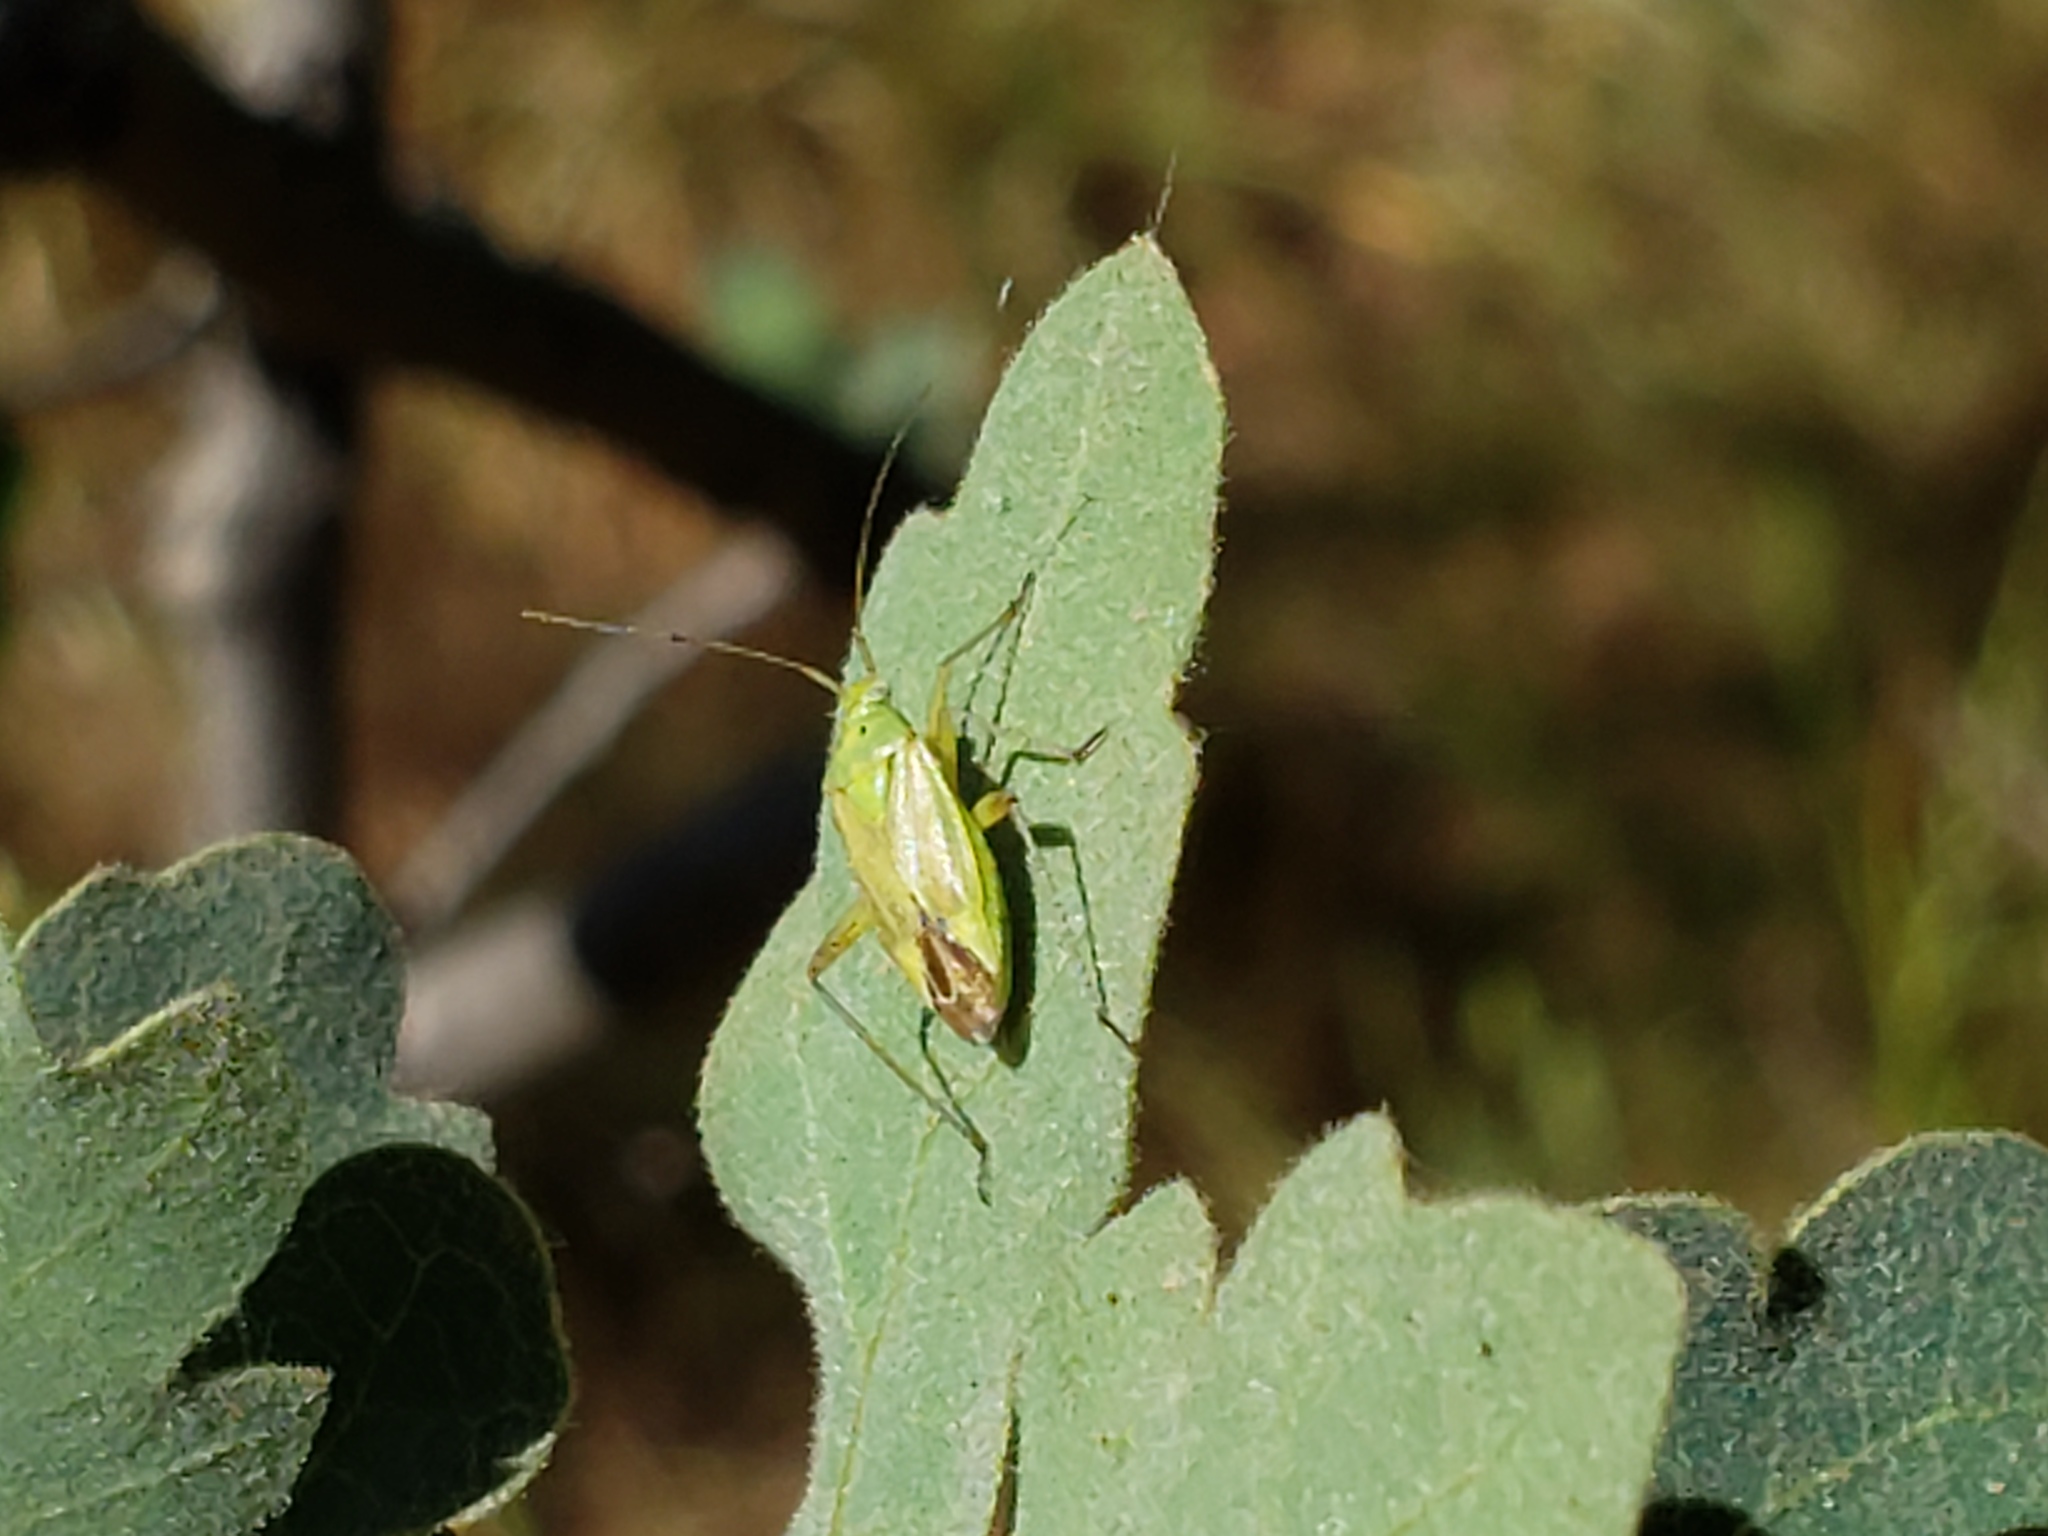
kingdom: Animalia
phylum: Arthropoda
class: Insecta
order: Hemiptera
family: Miridae
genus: Closterotomus
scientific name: Closterotomus norvegicus
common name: Plant bug
